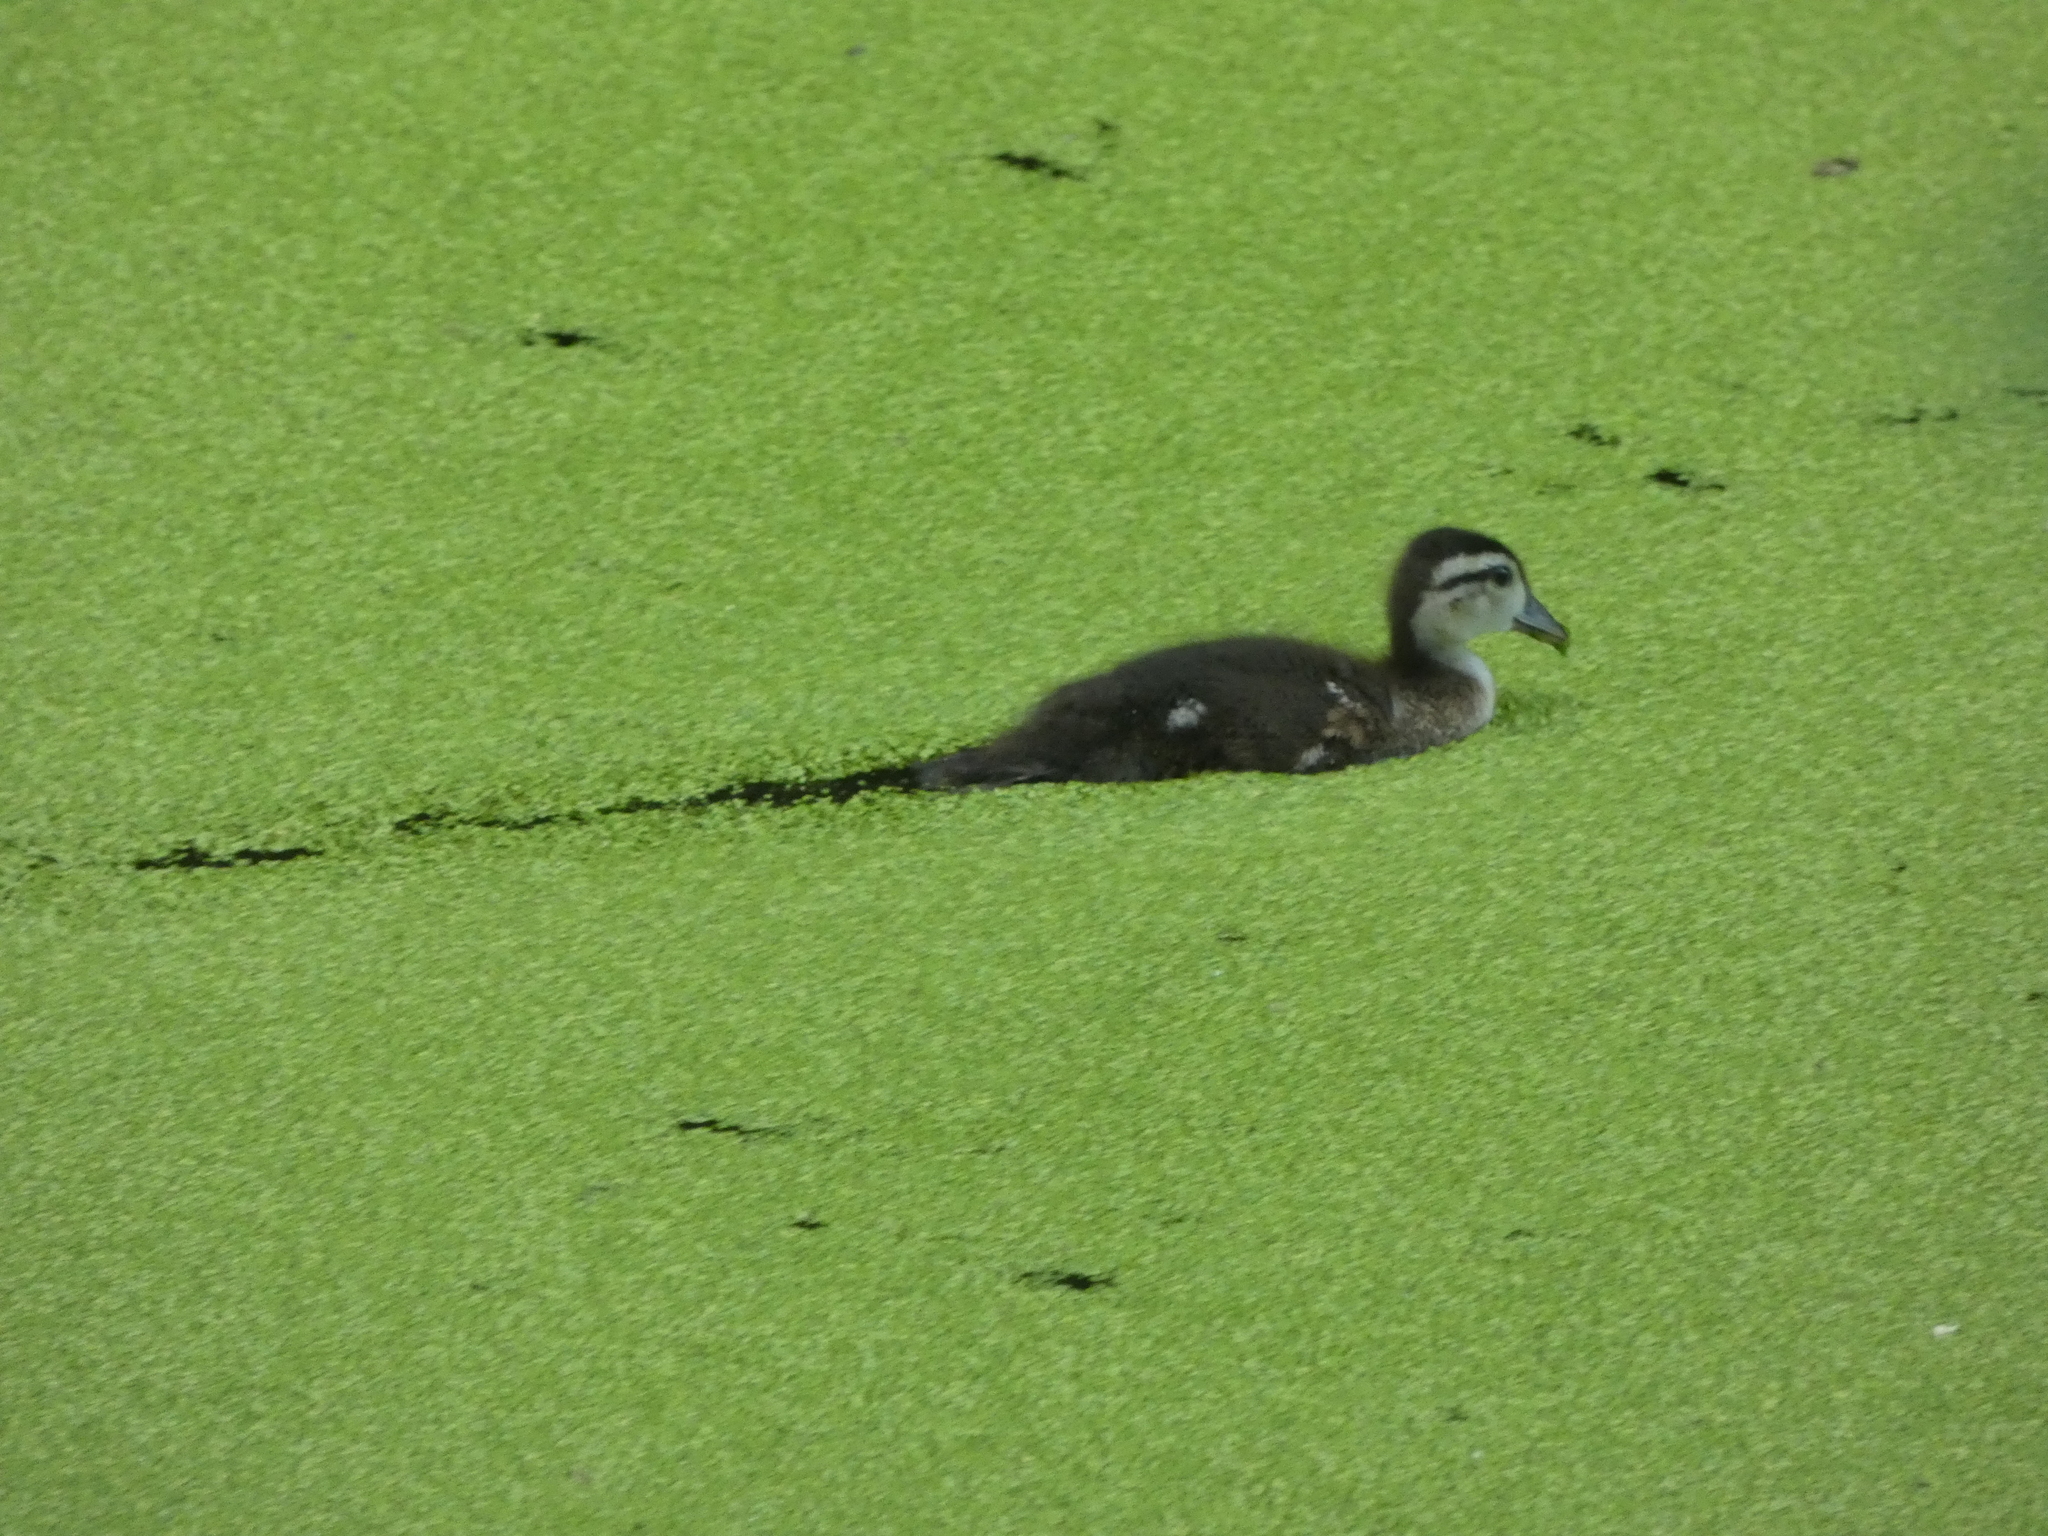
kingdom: Animalia
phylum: Chordata
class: Aves
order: Anseriformes
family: Anatidae
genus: Aix
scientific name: Aix sponsa
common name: Wood duck
